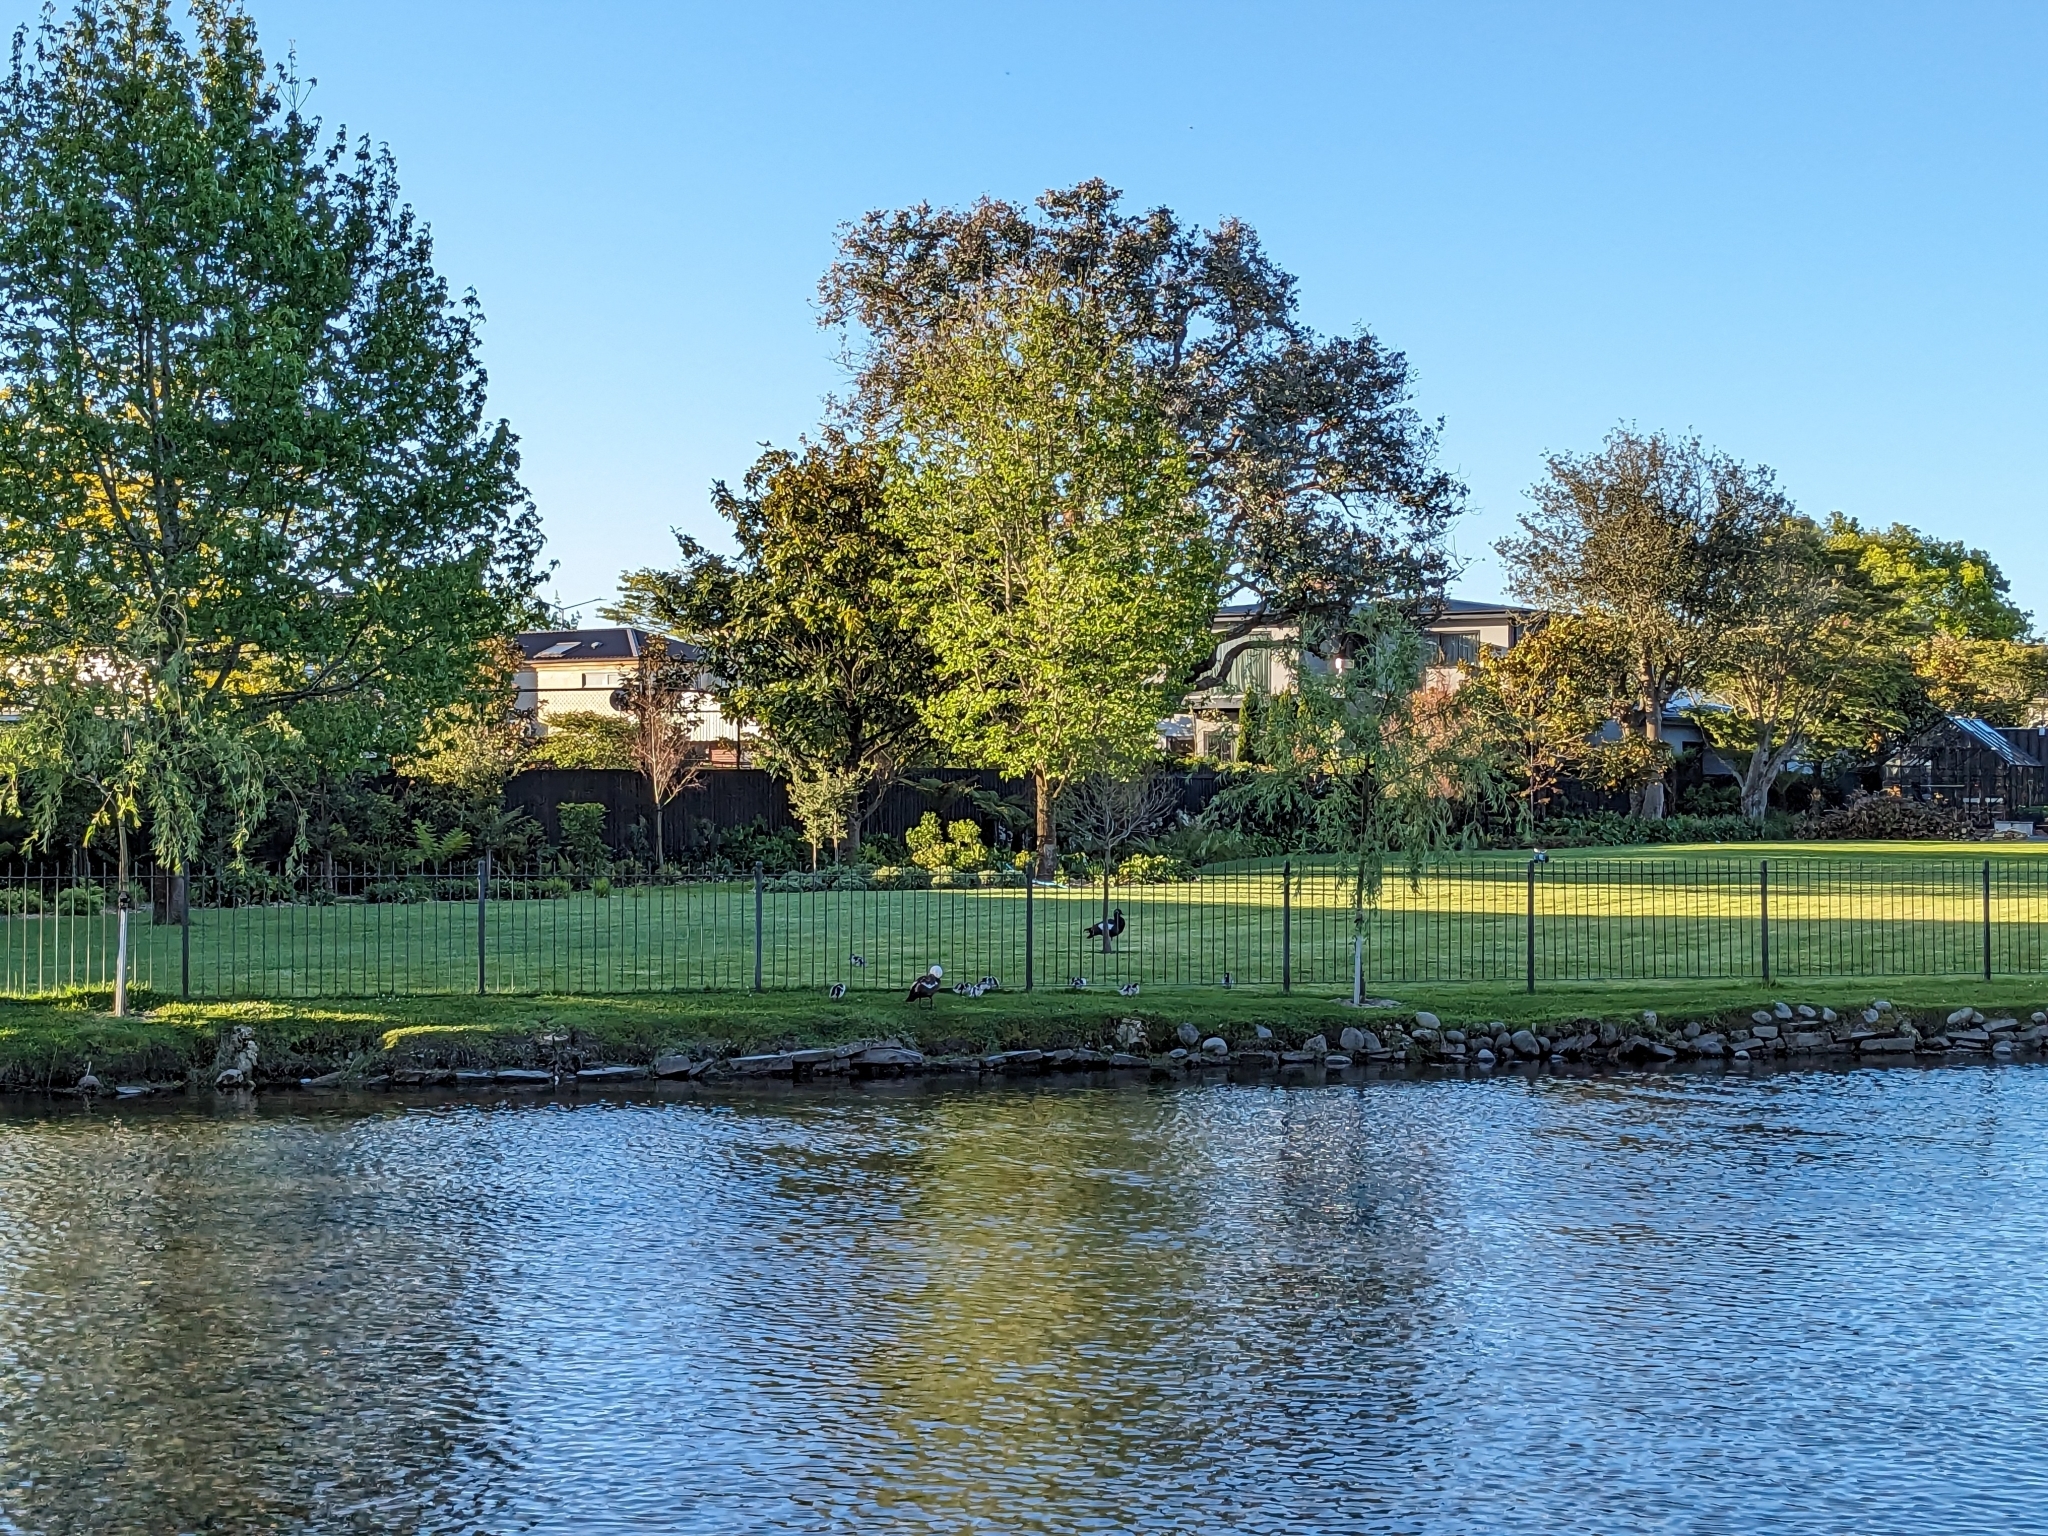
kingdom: Animalia
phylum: Chordata
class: Aves
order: Anseriformes
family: Anatidae
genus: Tadorna
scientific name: Tadorna variegata
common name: Paradise shelduck
